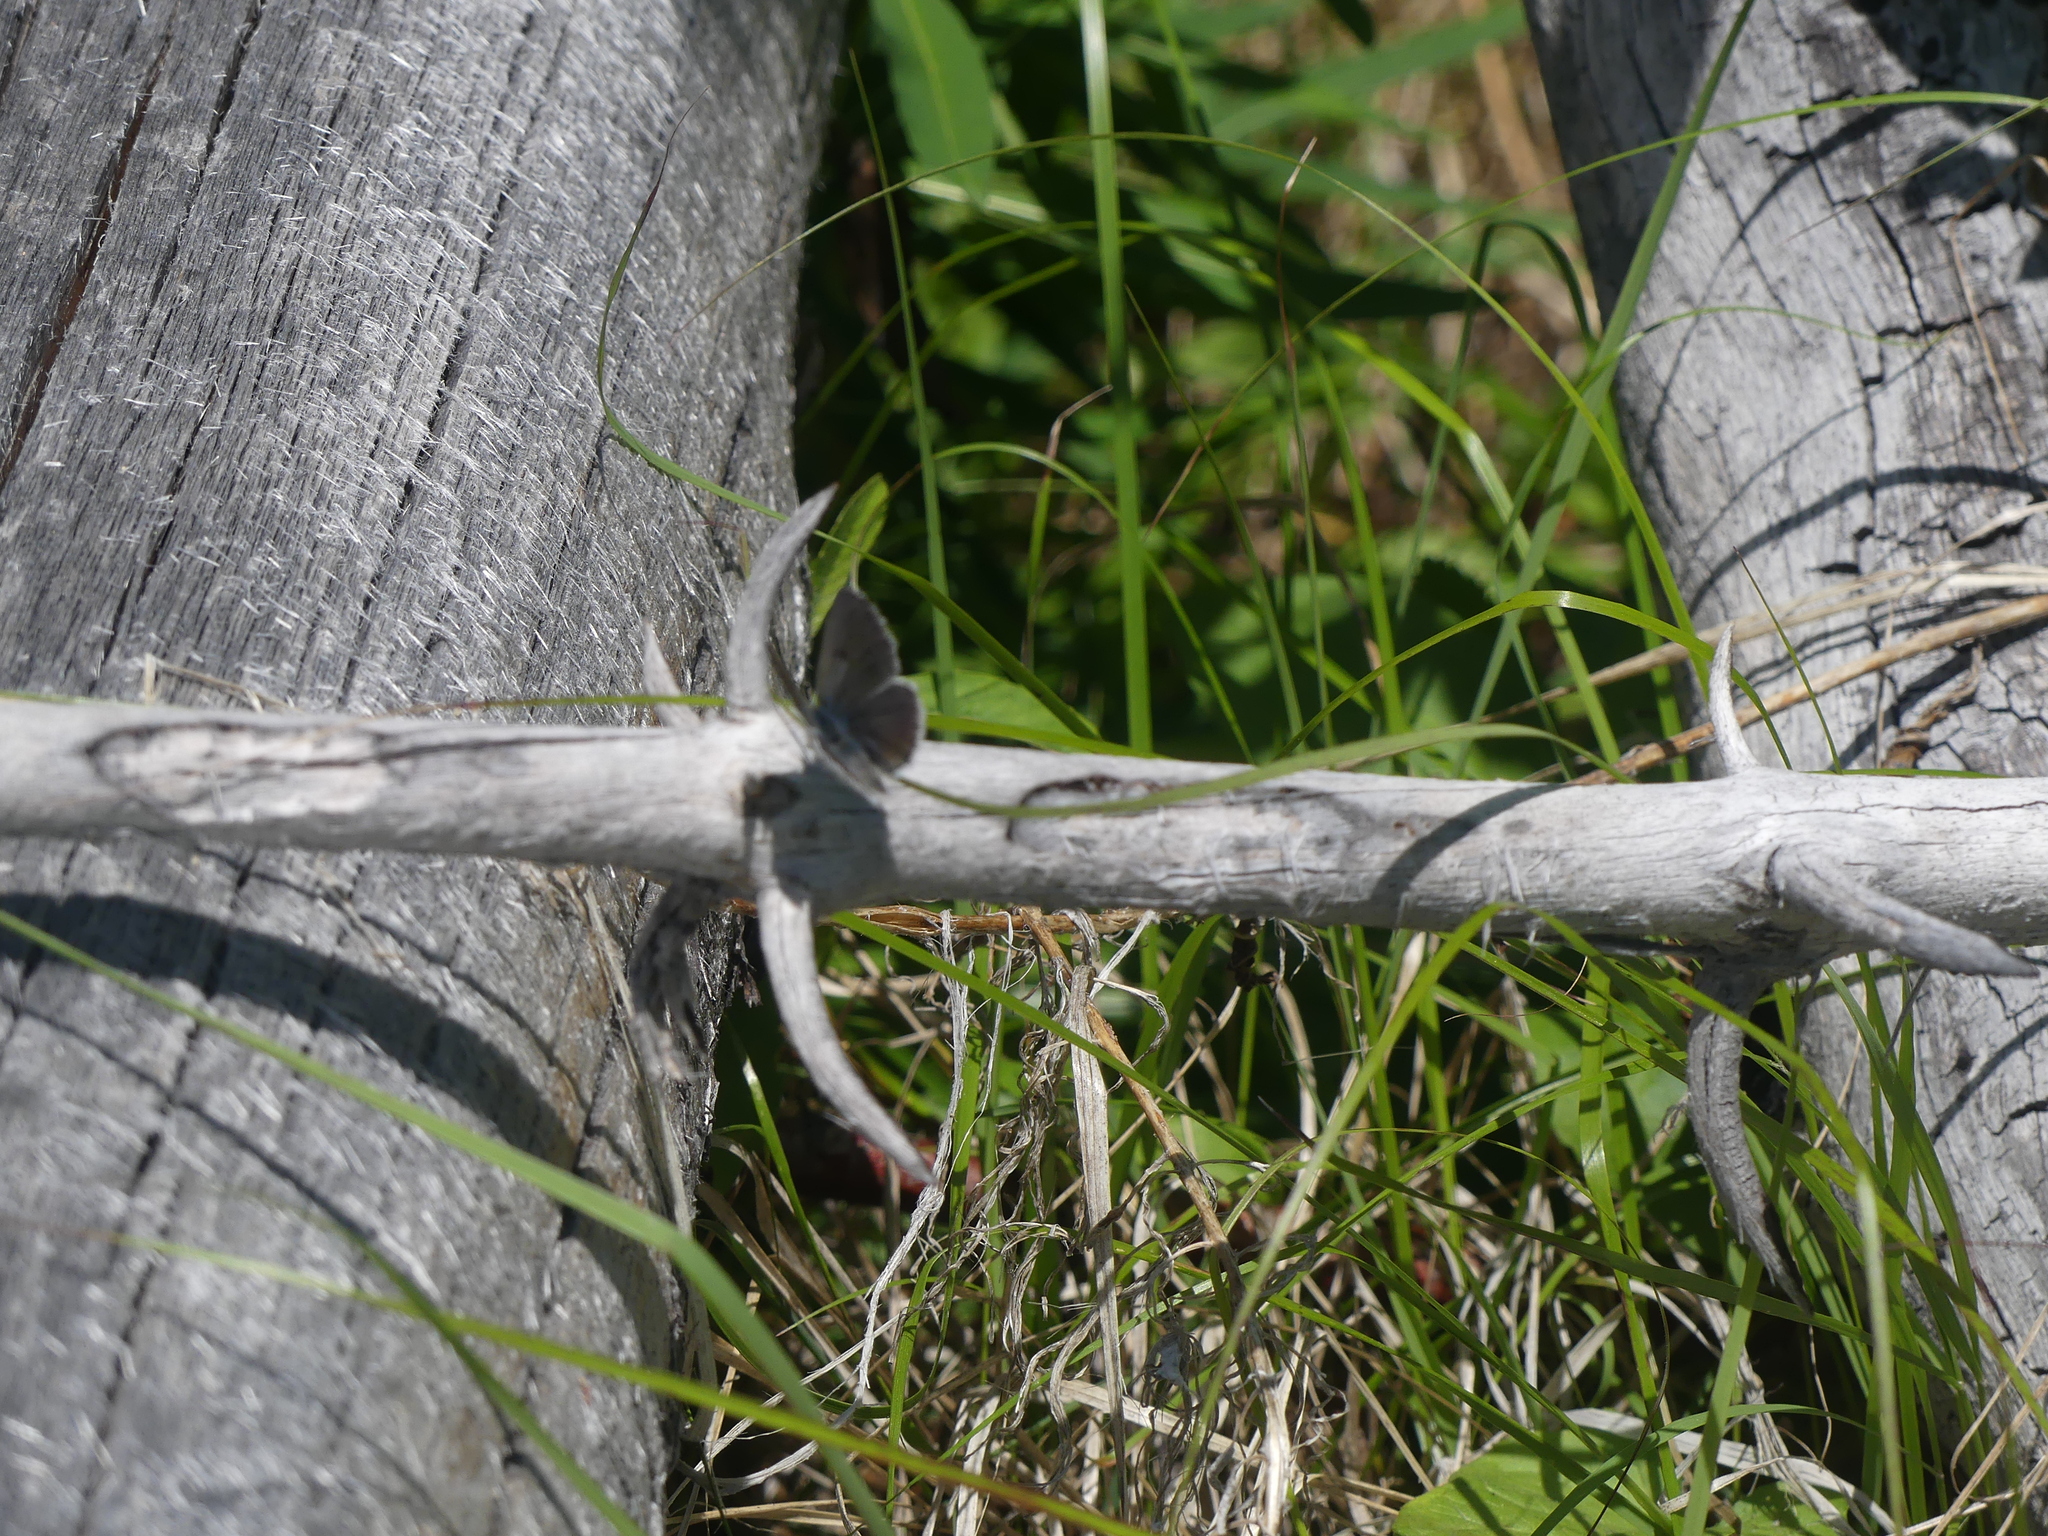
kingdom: Animalia
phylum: Arthropoda
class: Insecta
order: Lepidoptera
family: Lycaenidae
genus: Icaricia
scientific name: Icaricia saepiolus
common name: Greenish blue
